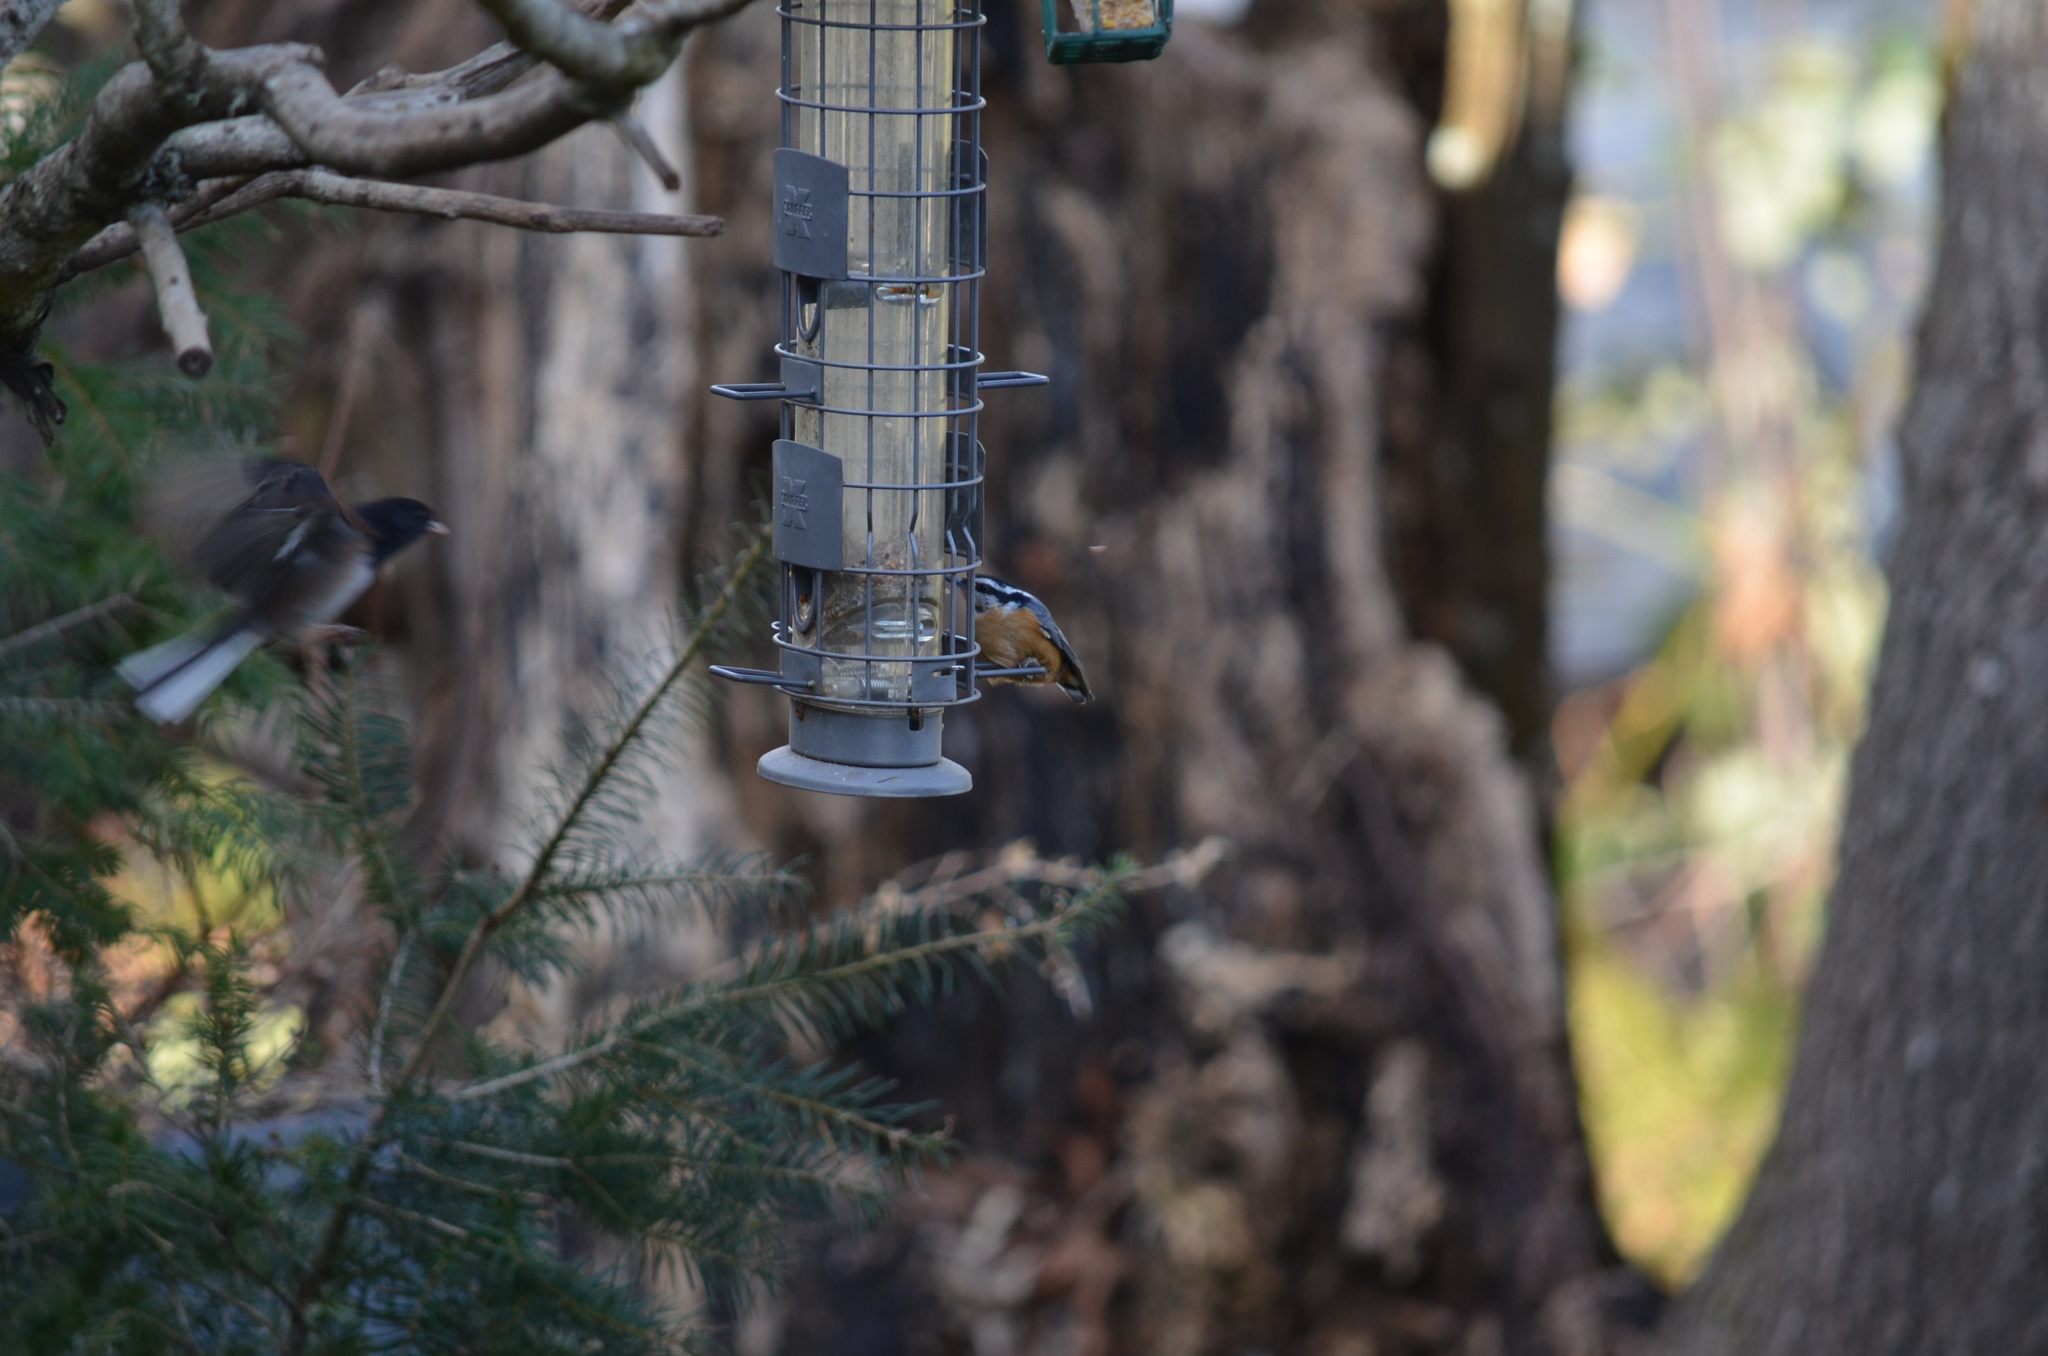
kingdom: Animalia
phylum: Chordata
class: Aves
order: Passeriformes
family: Sittidae
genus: Sitta
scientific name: Sitta canadensis
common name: Red-breasted nuthatch
